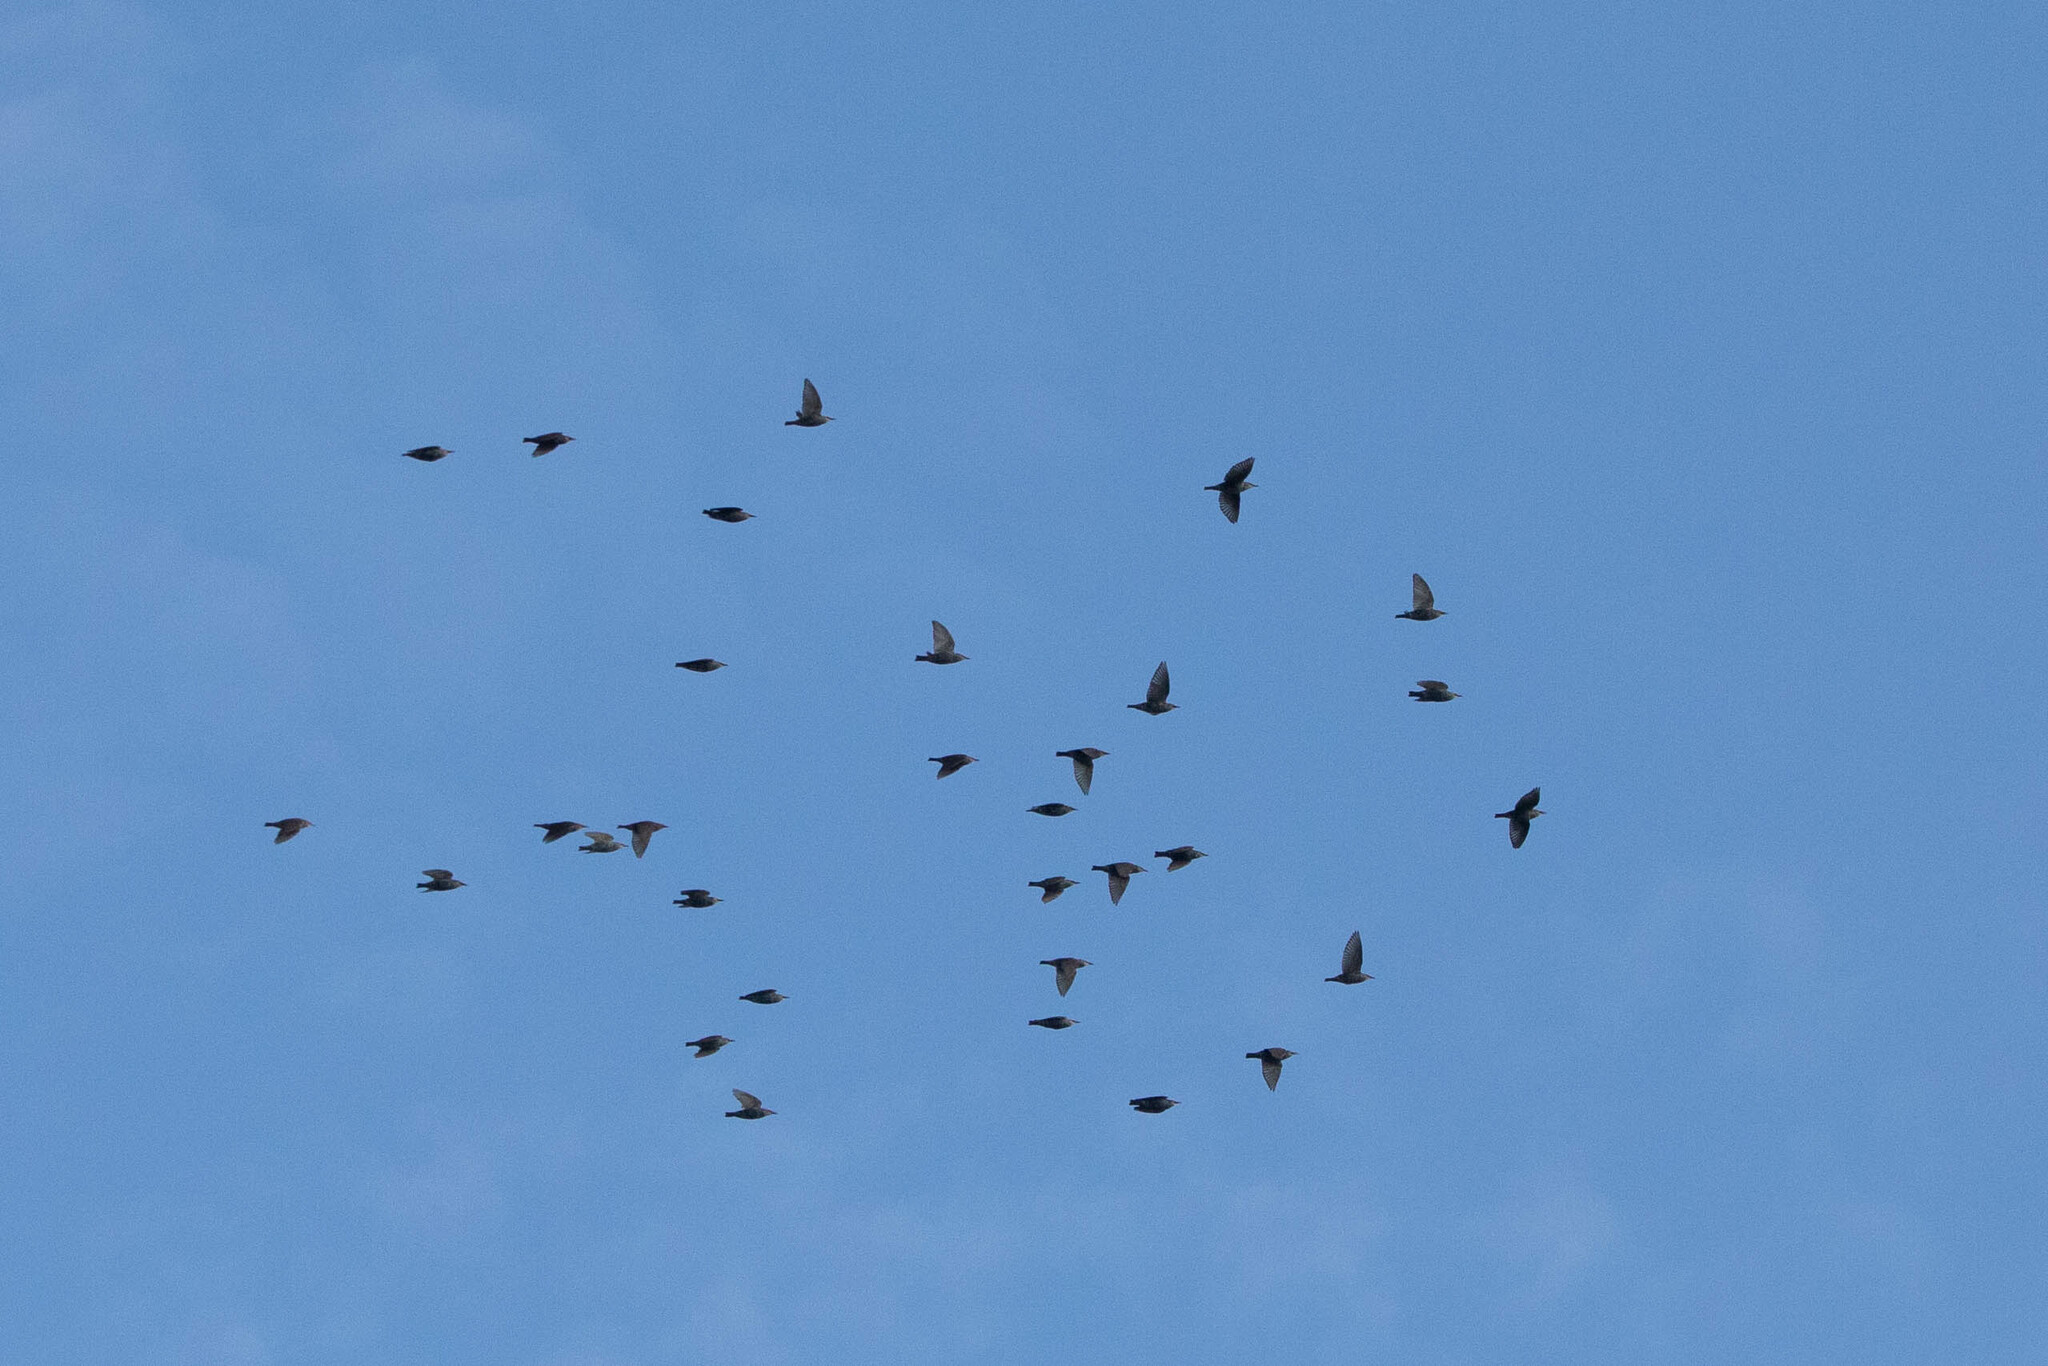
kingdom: Animalia
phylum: Chordata
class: Aves
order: Passeriformes
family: Sturnidae
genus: Sturnus
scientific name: Sturnus vulgaris
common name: Common starling
